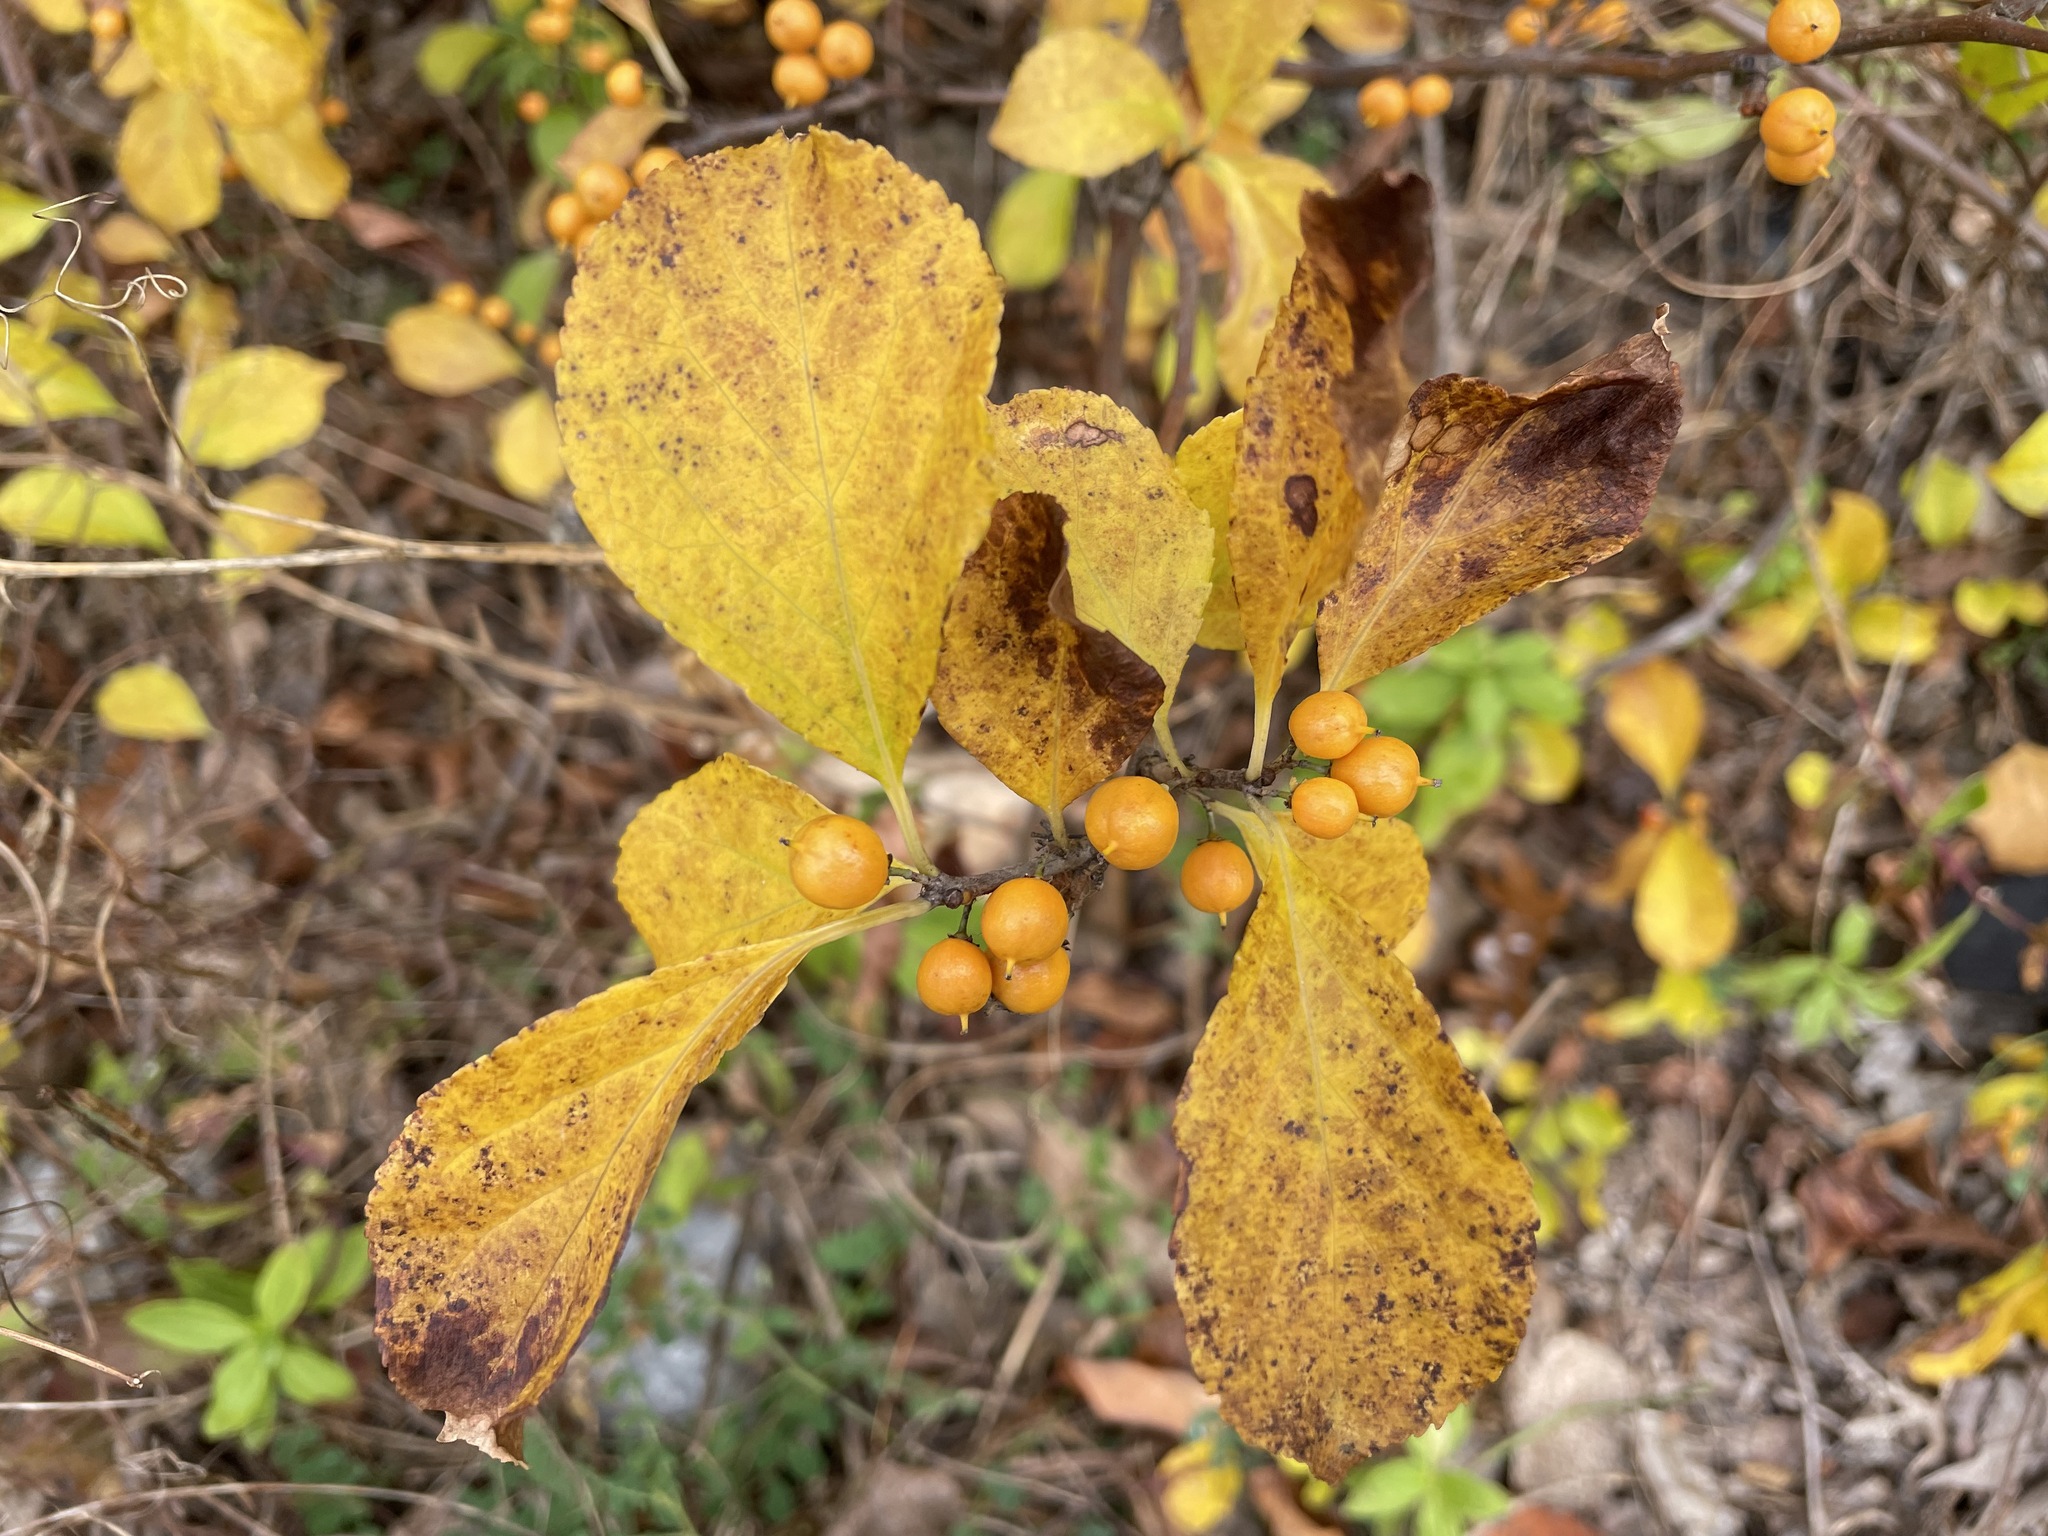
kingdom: Plantae
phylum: Tracheophyta
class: Magnoliopsida
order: Celastrales
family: Celastraceae
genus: Celastrus
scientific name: Celastrus orbiculatus
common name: Oriental bittersweet
